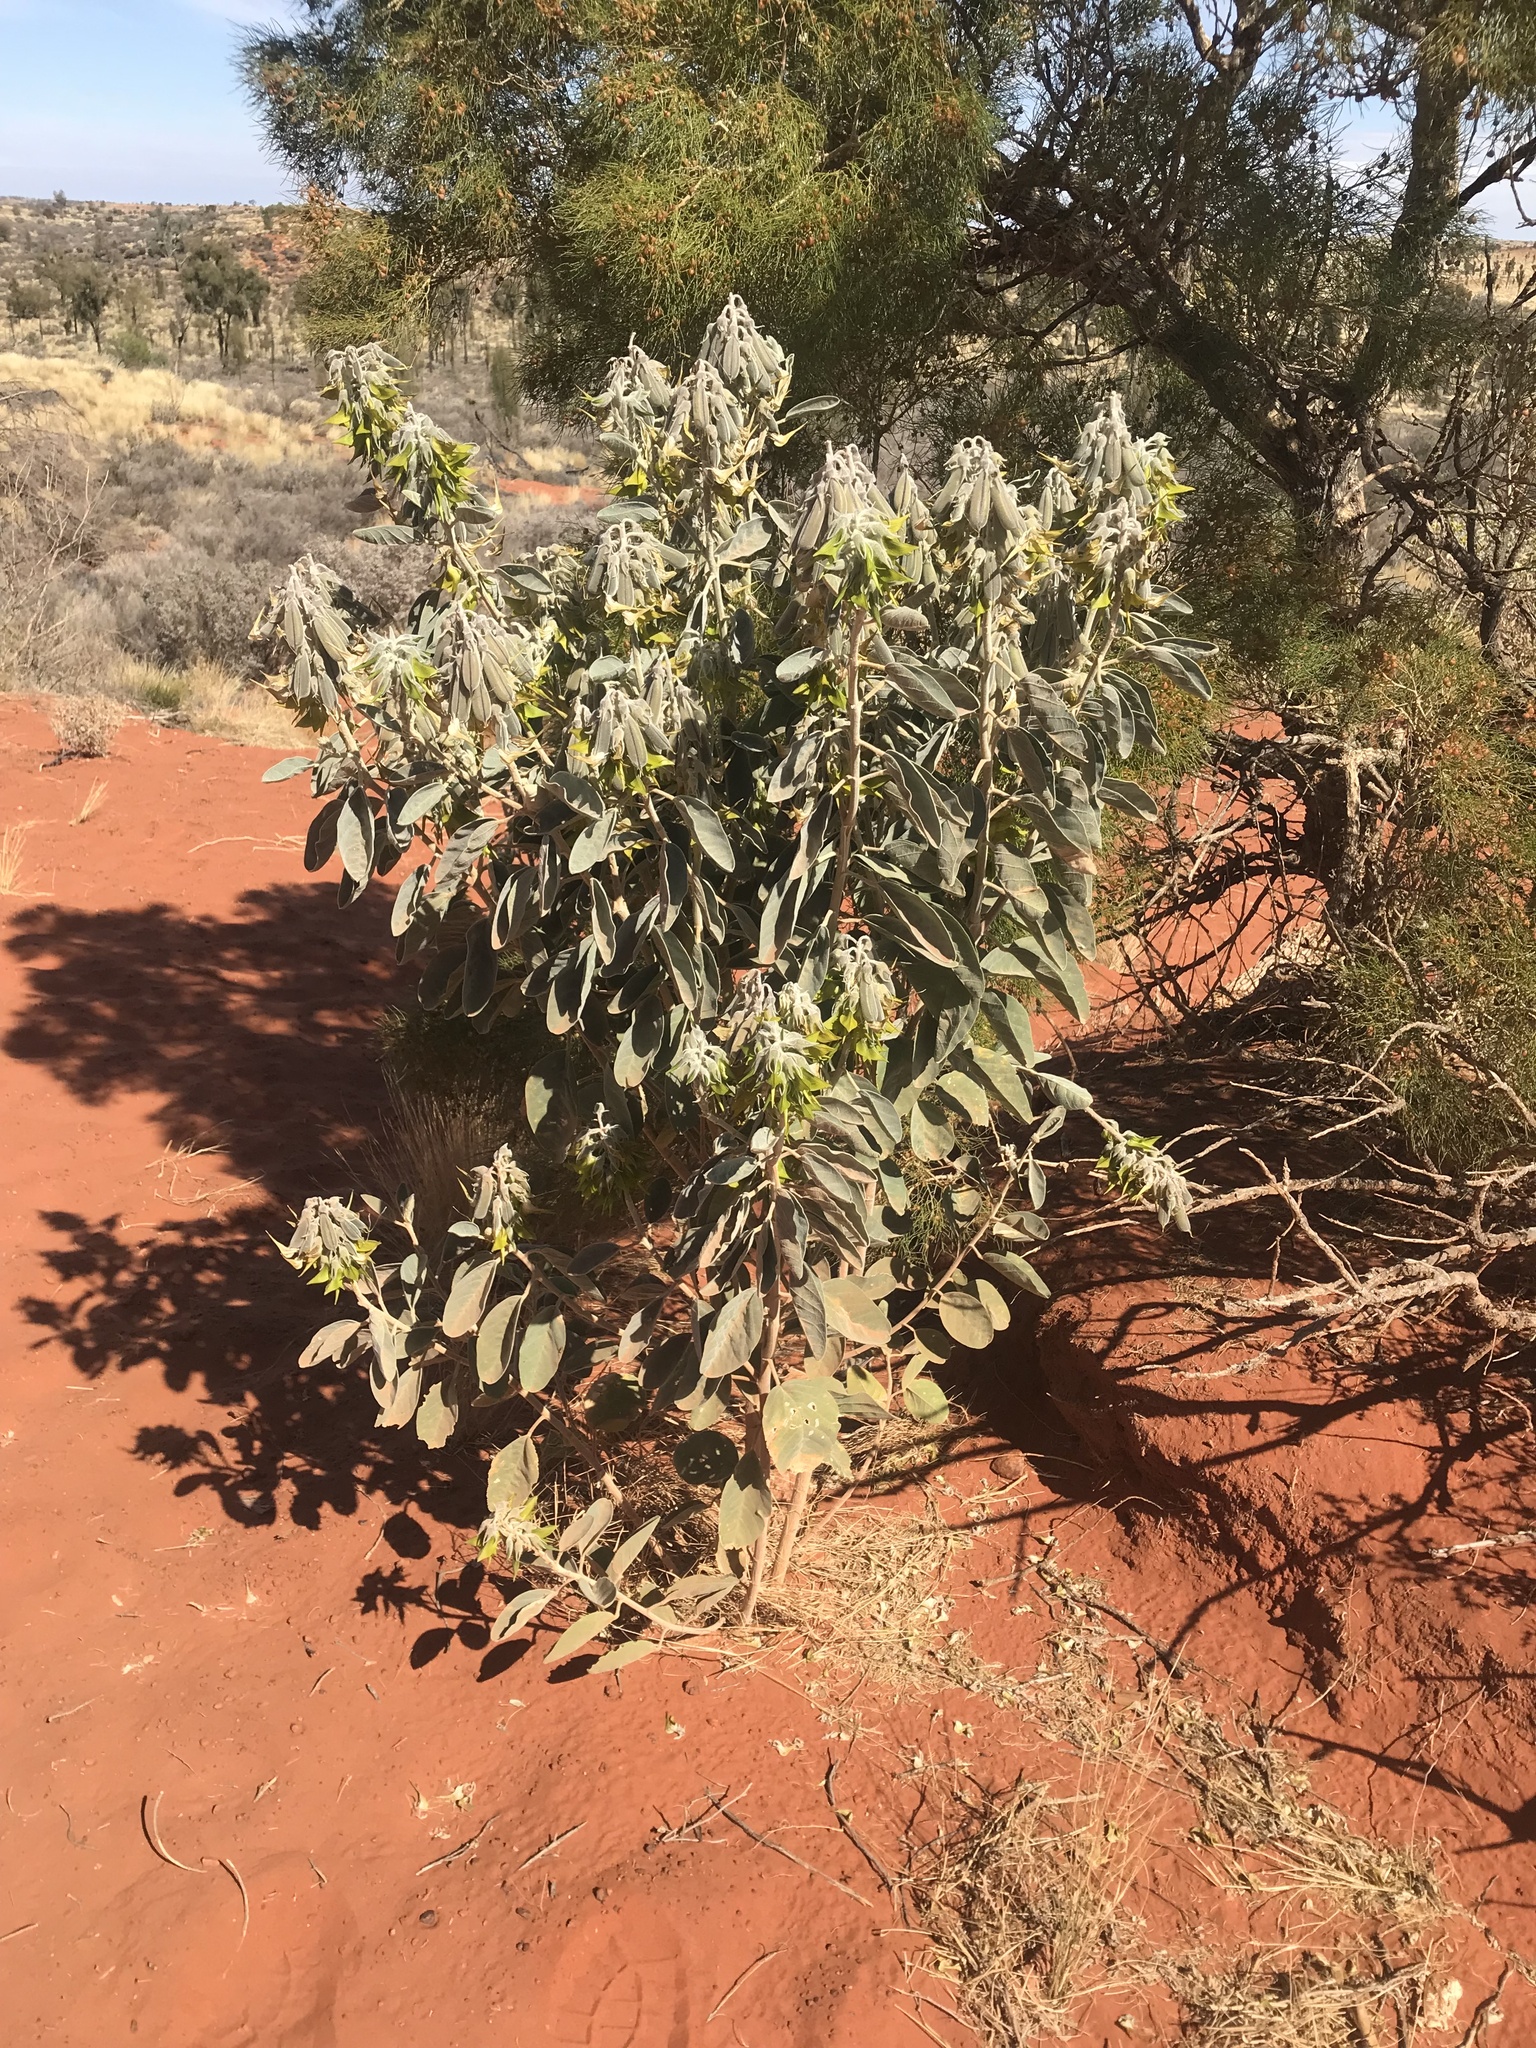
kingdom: Plantae
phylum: Tracheophyta
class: Magnoliopsida
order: Fabales
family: Fabaceae
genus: Crotalaria
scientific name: Crotalaria cunninghamii
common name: Birdflower rattlepod
